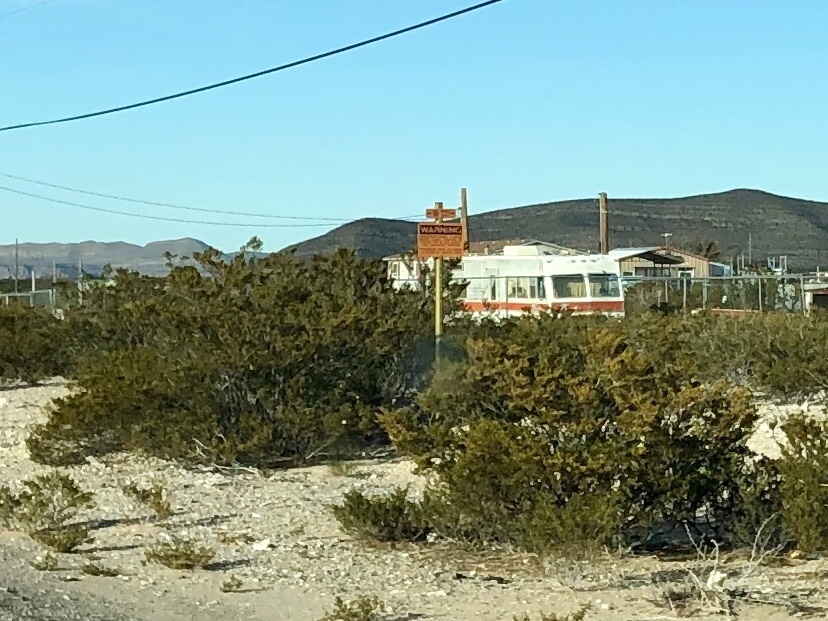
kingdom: Plantae
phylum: Tracheophyta
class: Magnoliopsida
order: Zygophyllales
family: Zygophyllaceae
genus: Larrea
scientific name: Larrea tridentata
